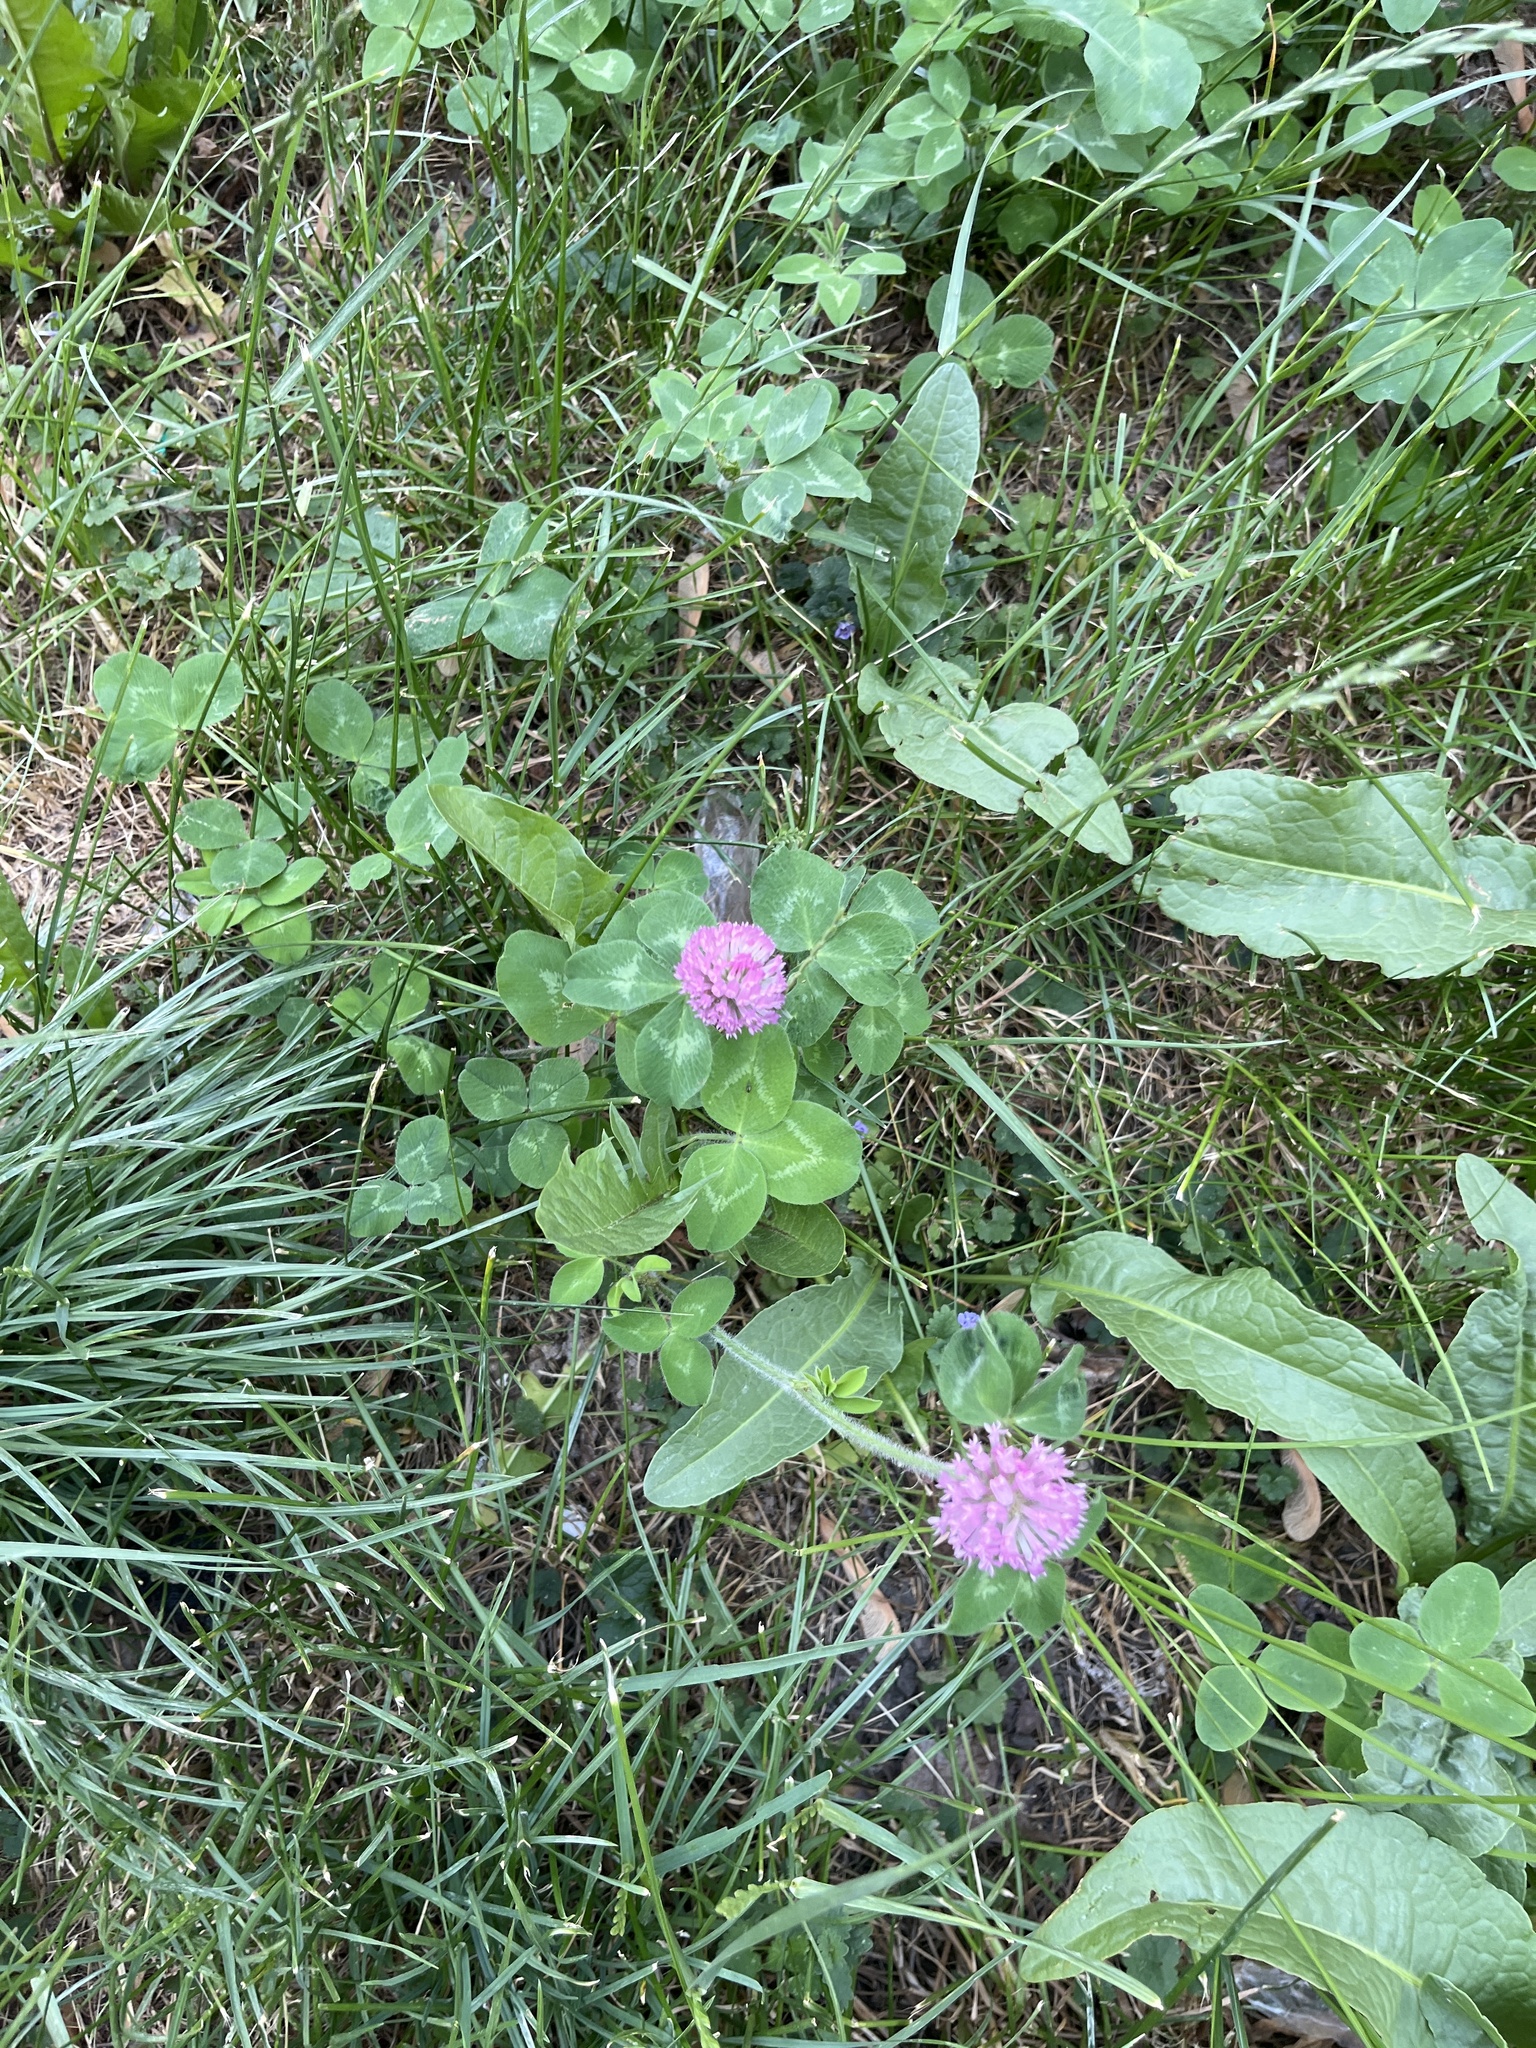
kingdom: Plantae
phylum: Tracheophyta
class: Magnoliopsida
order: Fabales
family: Fabaceae
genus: Trifolium
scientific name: Trifolium pratense
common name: Red clover
